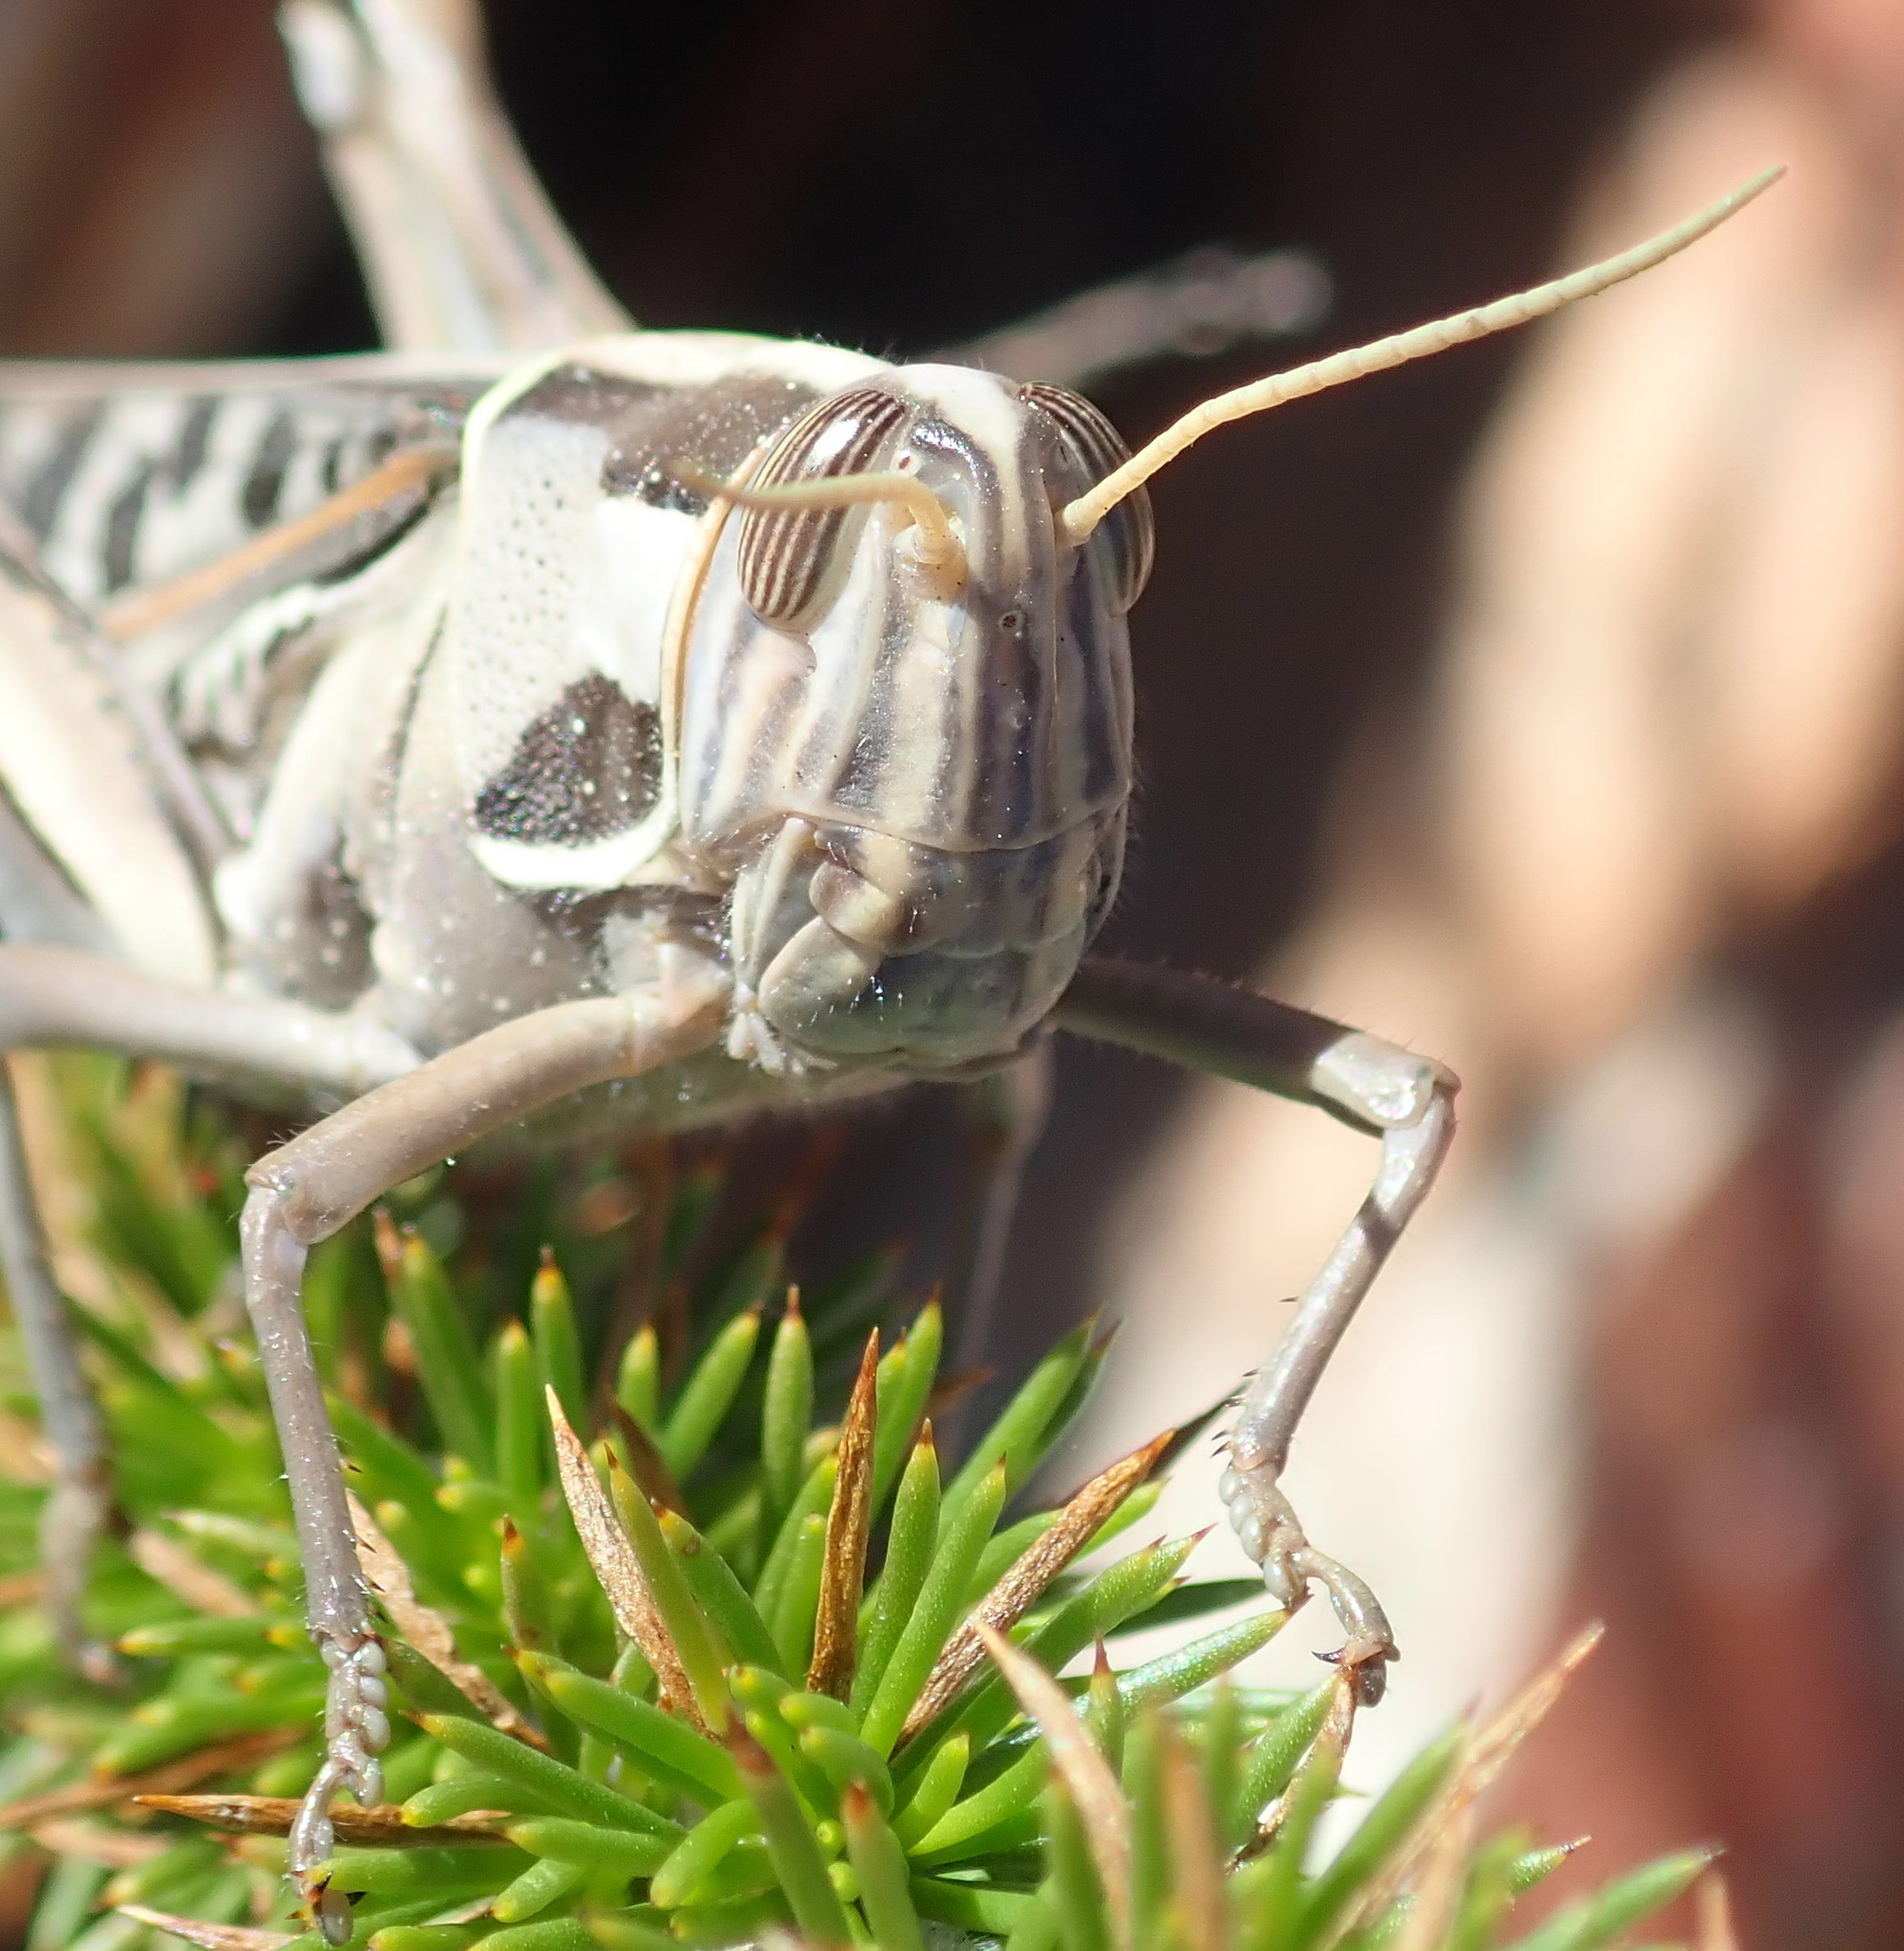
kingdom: Animalia
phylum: Arthropoda
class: Insecta
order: Orthoptera
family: Acrididae
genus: Cyrtacanthacris
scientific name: Cyrtacanthacris tatarica
